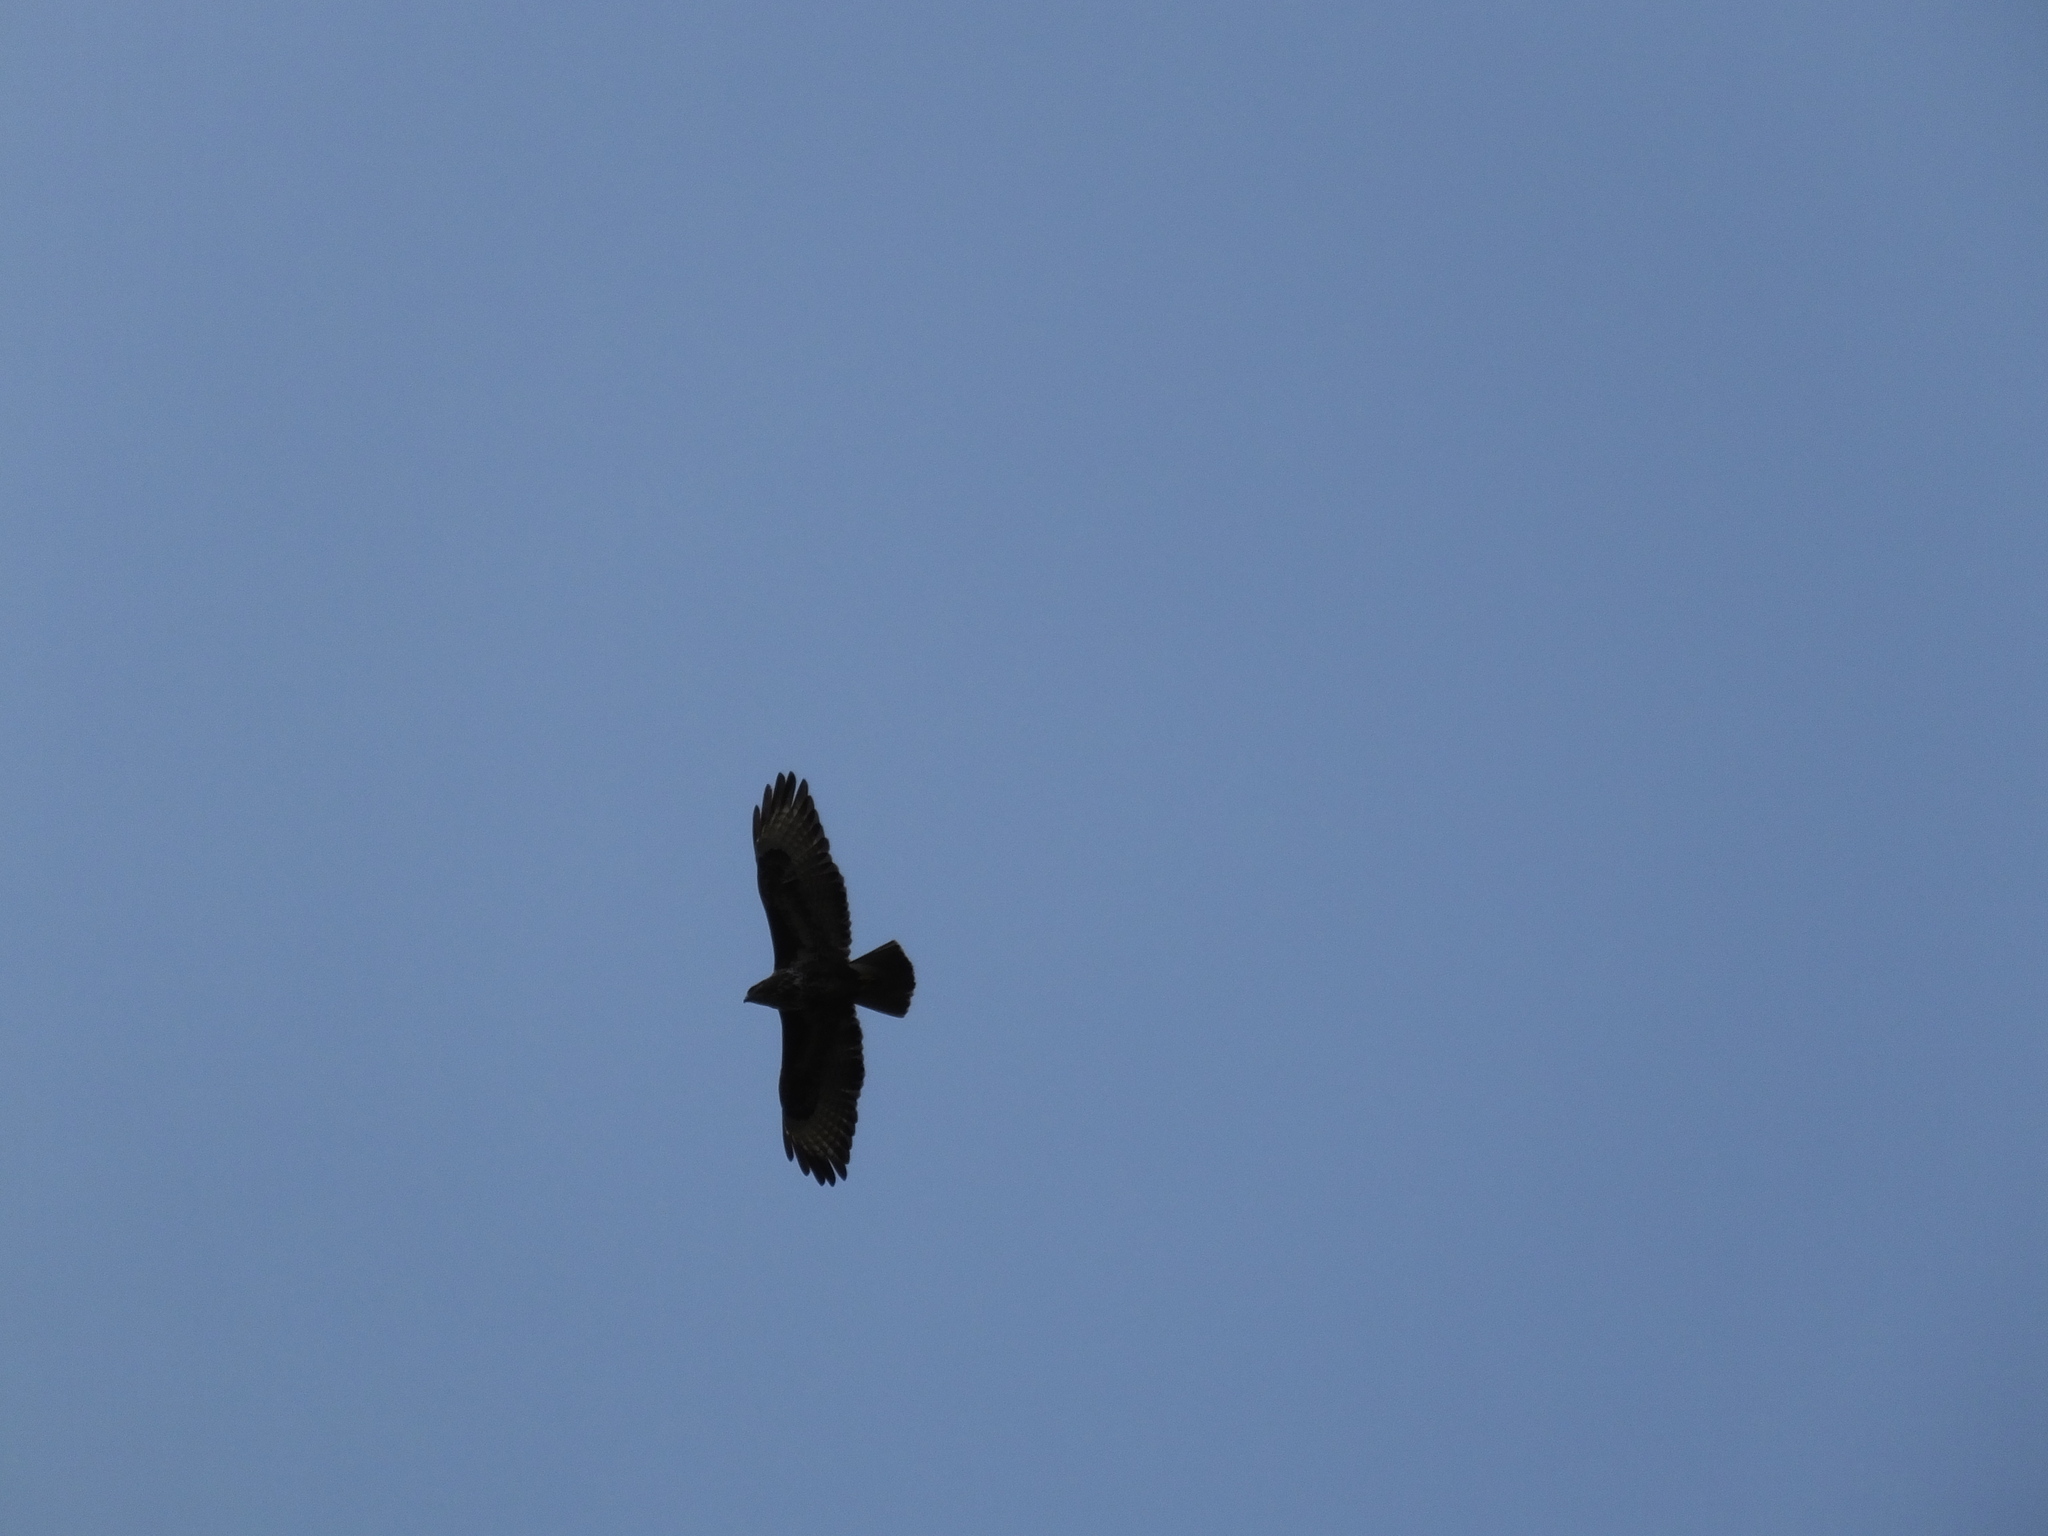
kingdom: Animalia
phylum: Chordata
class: Aves
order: Accipitriformes
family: Accipitridae
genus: Buteo
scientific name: Buteo buteo
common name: Common buzzard
